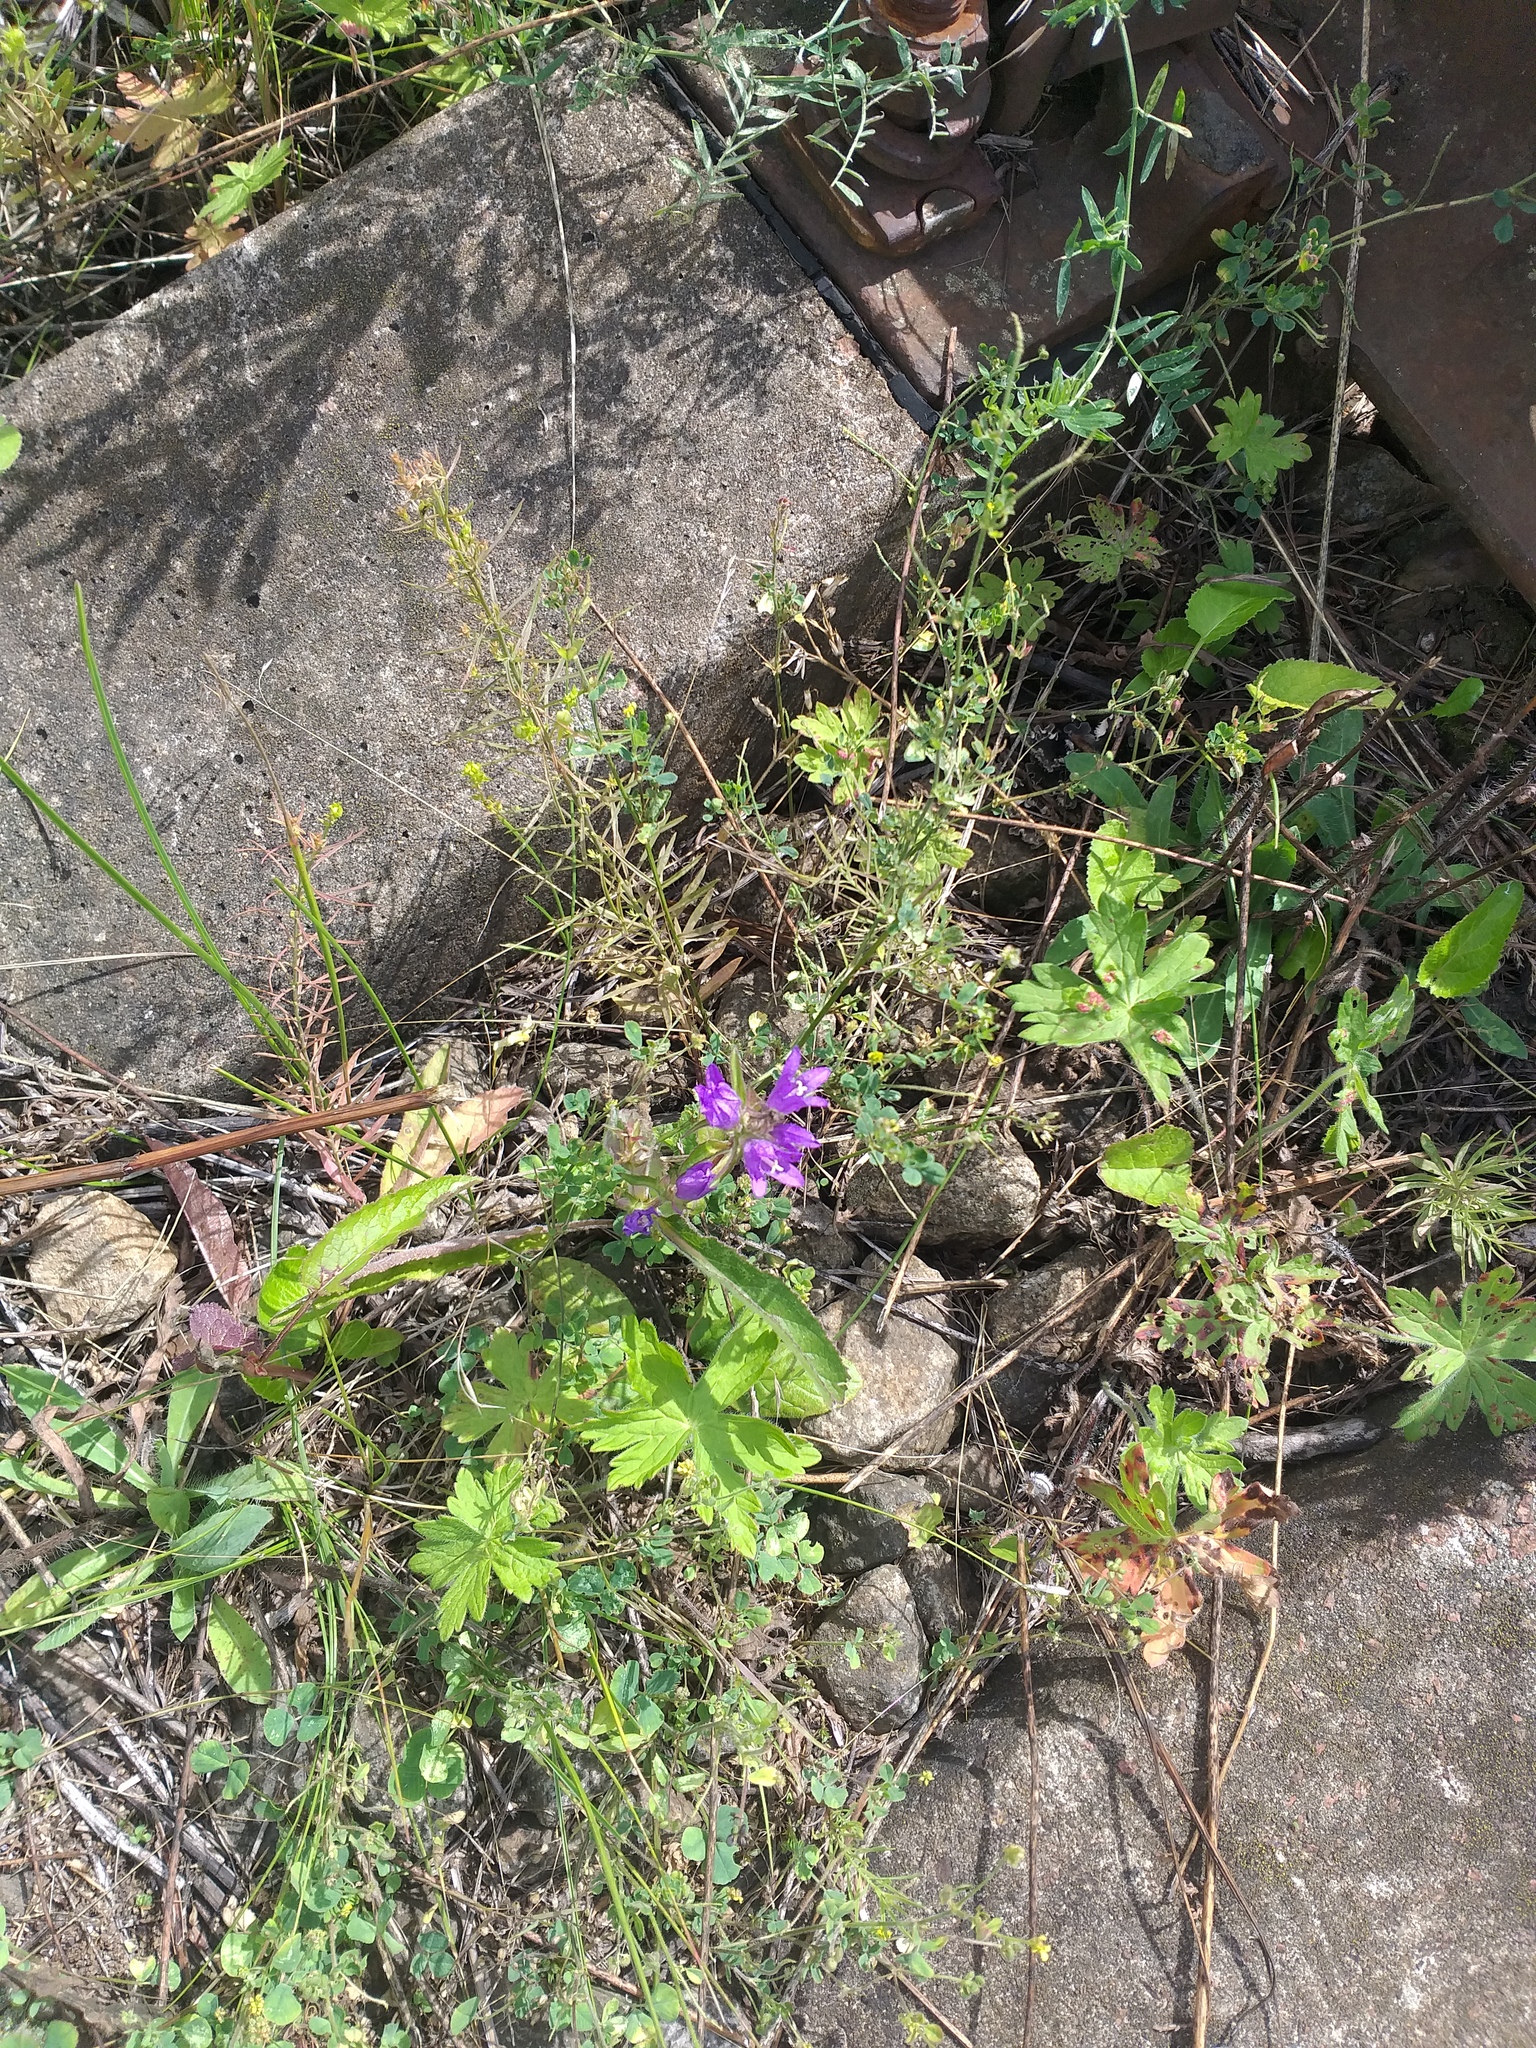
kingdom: Plantae
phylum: Tracheophyta
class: Magnoliopsida
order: Asterales
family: Campanulaceae
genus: Campanula
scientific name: Campanula glomerata
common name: Clustered bellflower
